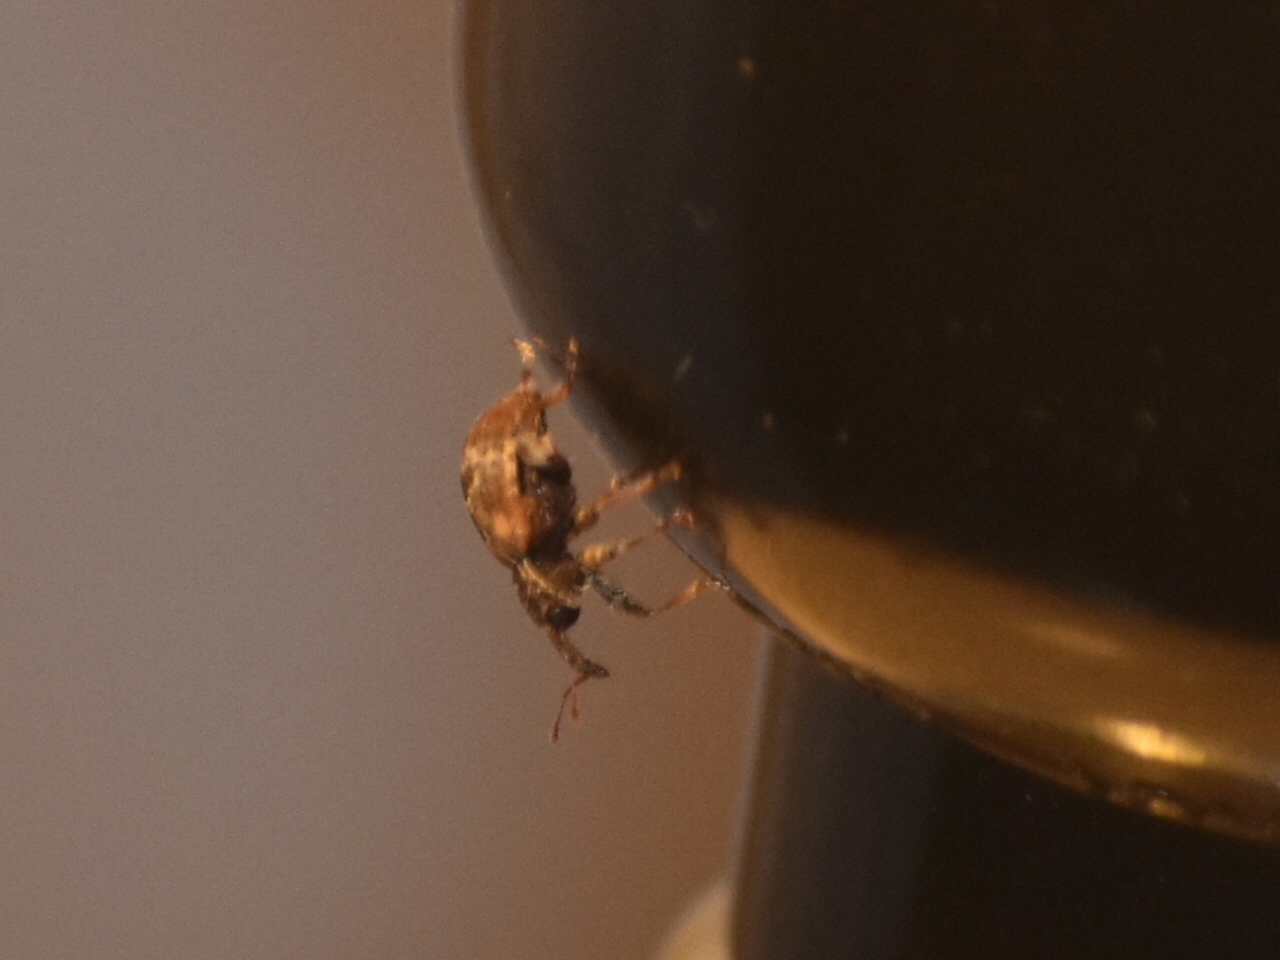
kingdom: Animalia
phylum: Arthropoda
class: Insecta
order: Coleoptera
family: Curculionidae
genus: Conotrachelus
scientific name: Conotrachelus anaglypticus
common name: Cambium curculio
